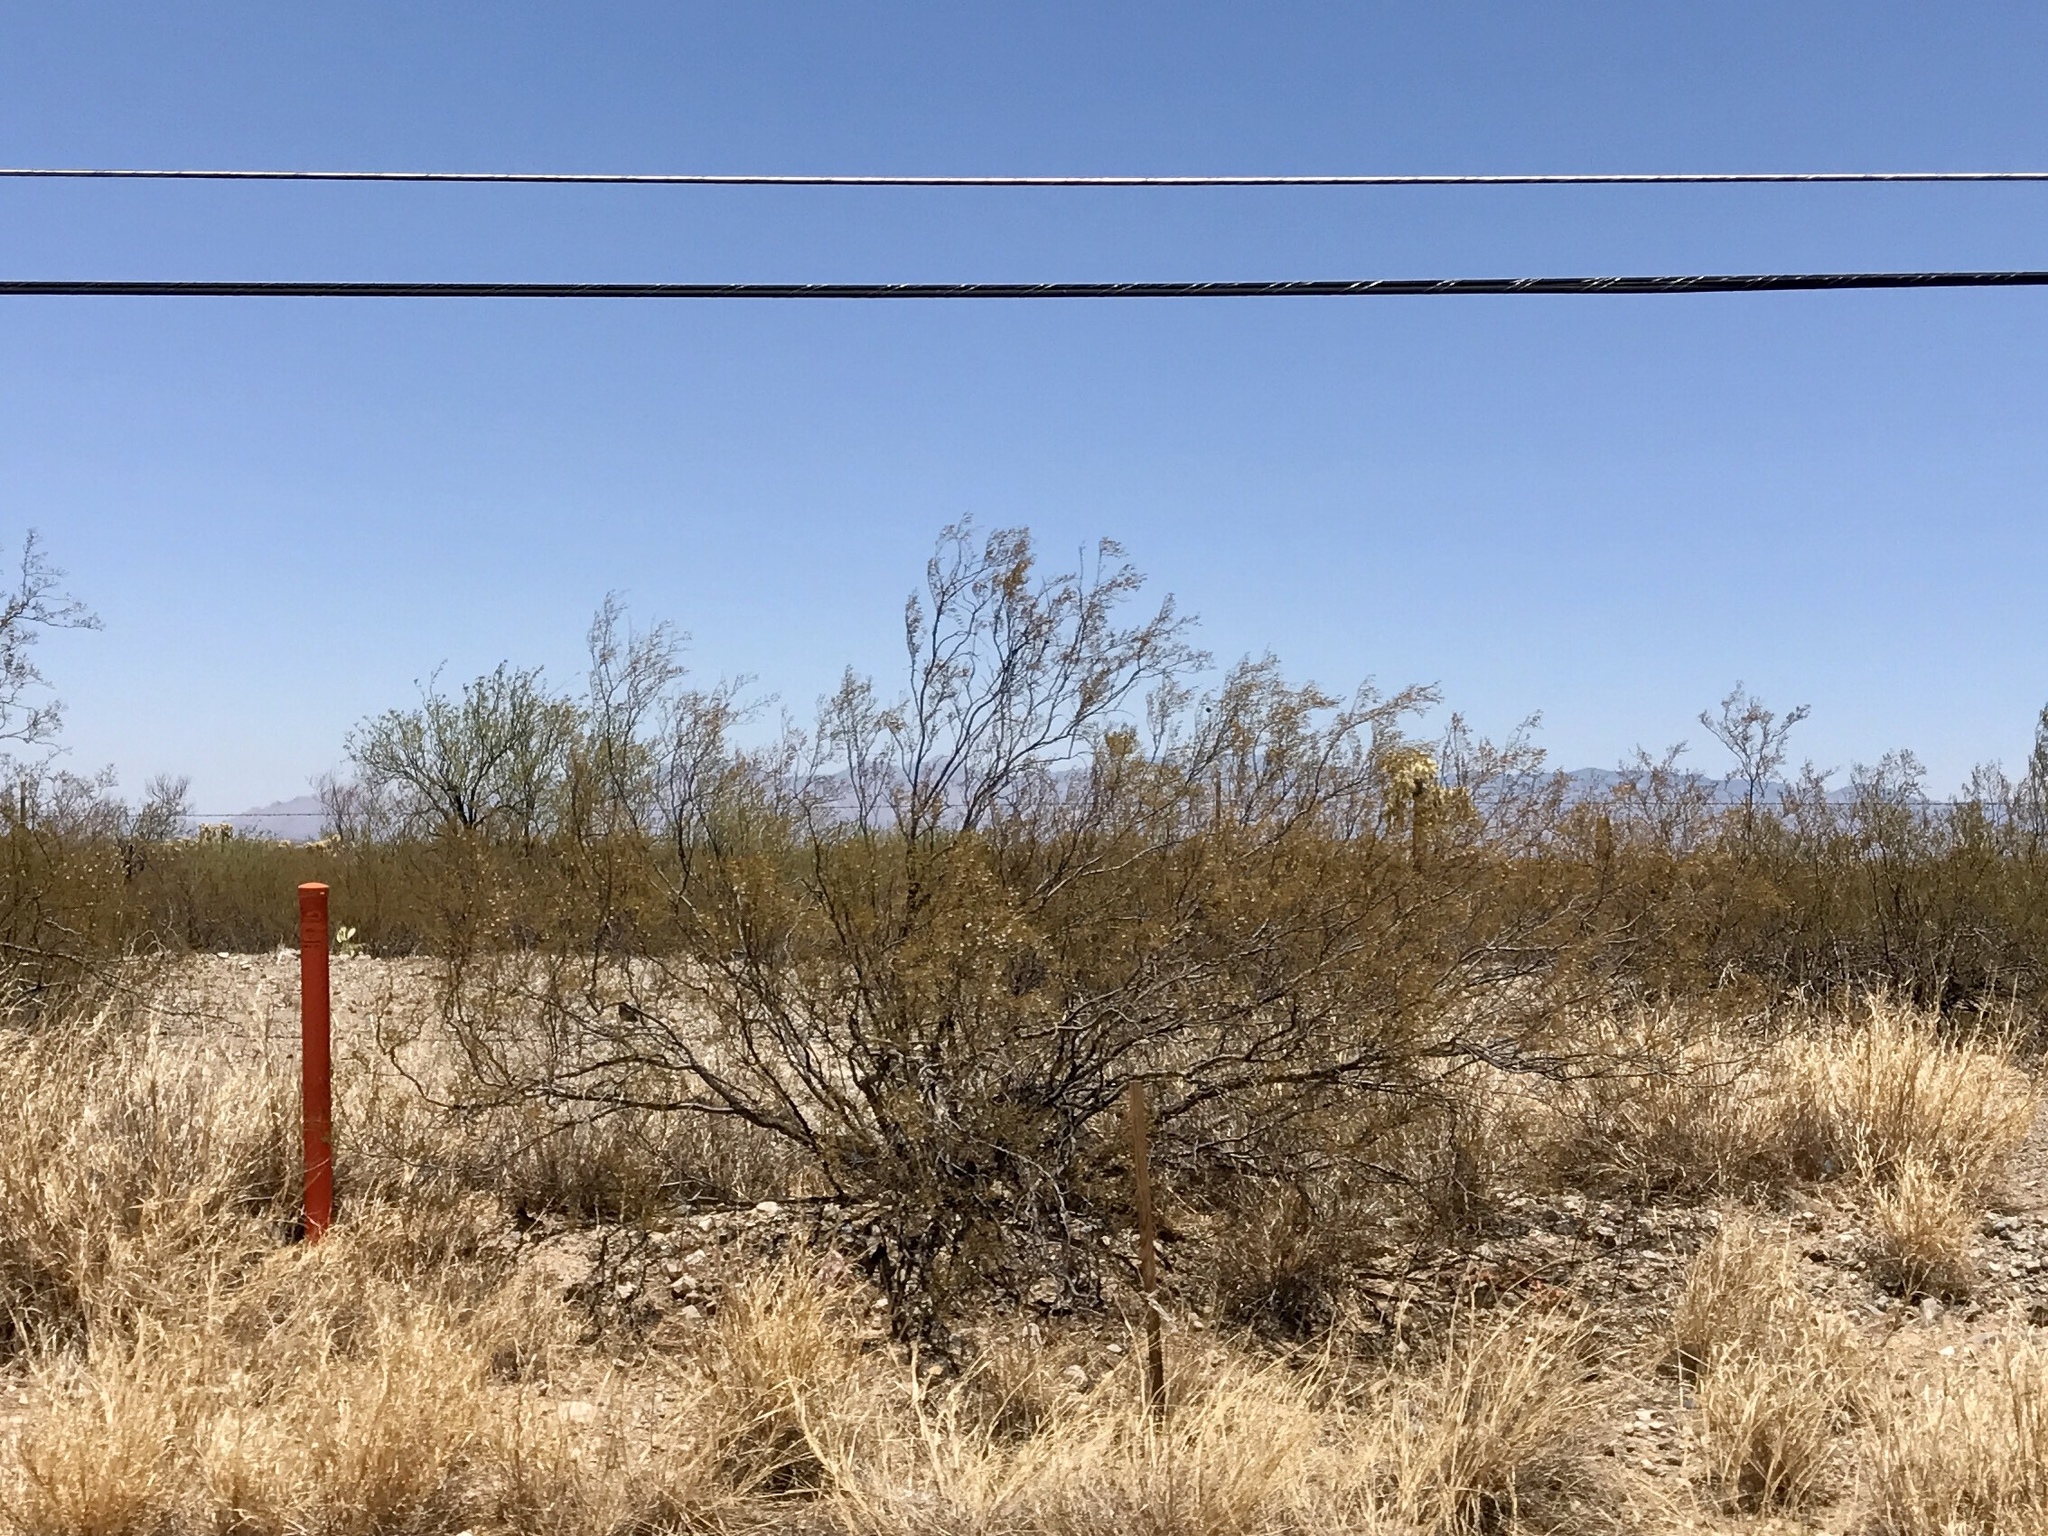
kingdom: Plantae
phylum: Tracheophyta
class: Magnoliopsida
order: Zygophyllales
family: Zygophyllaceae
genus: Larrea
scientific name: Larrea tridentata
